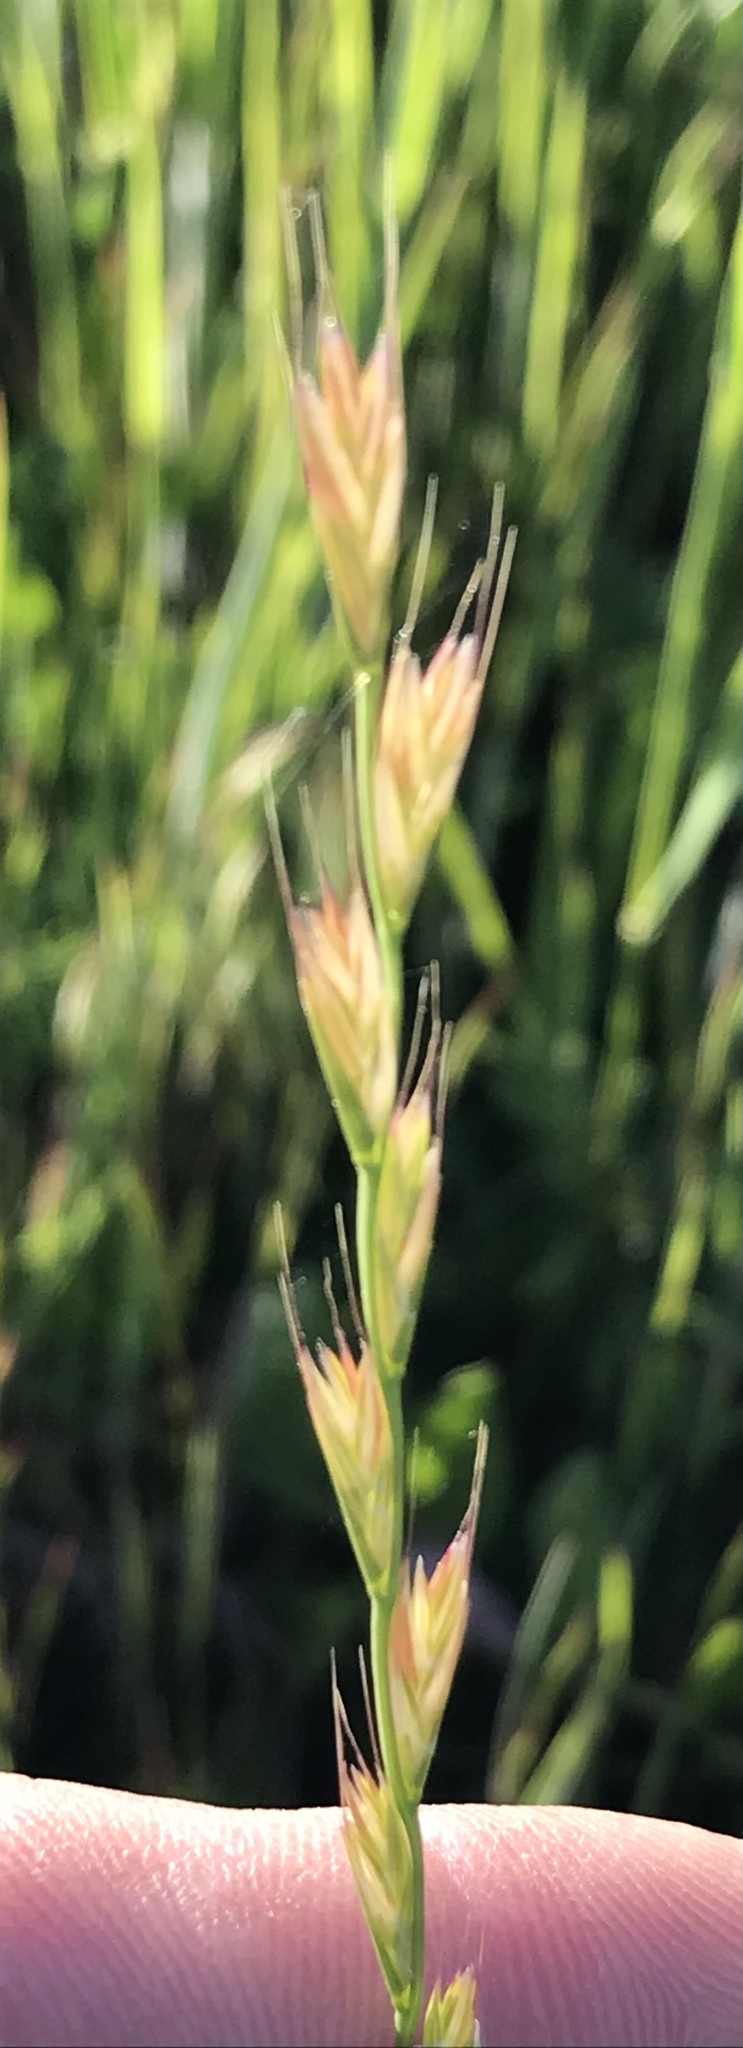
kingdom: Plantae
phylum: Tracheophyta
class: Liliopsida
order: Poales
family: Poaceae
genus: Lolium
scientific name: Lolium temulentum
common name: Darnel
